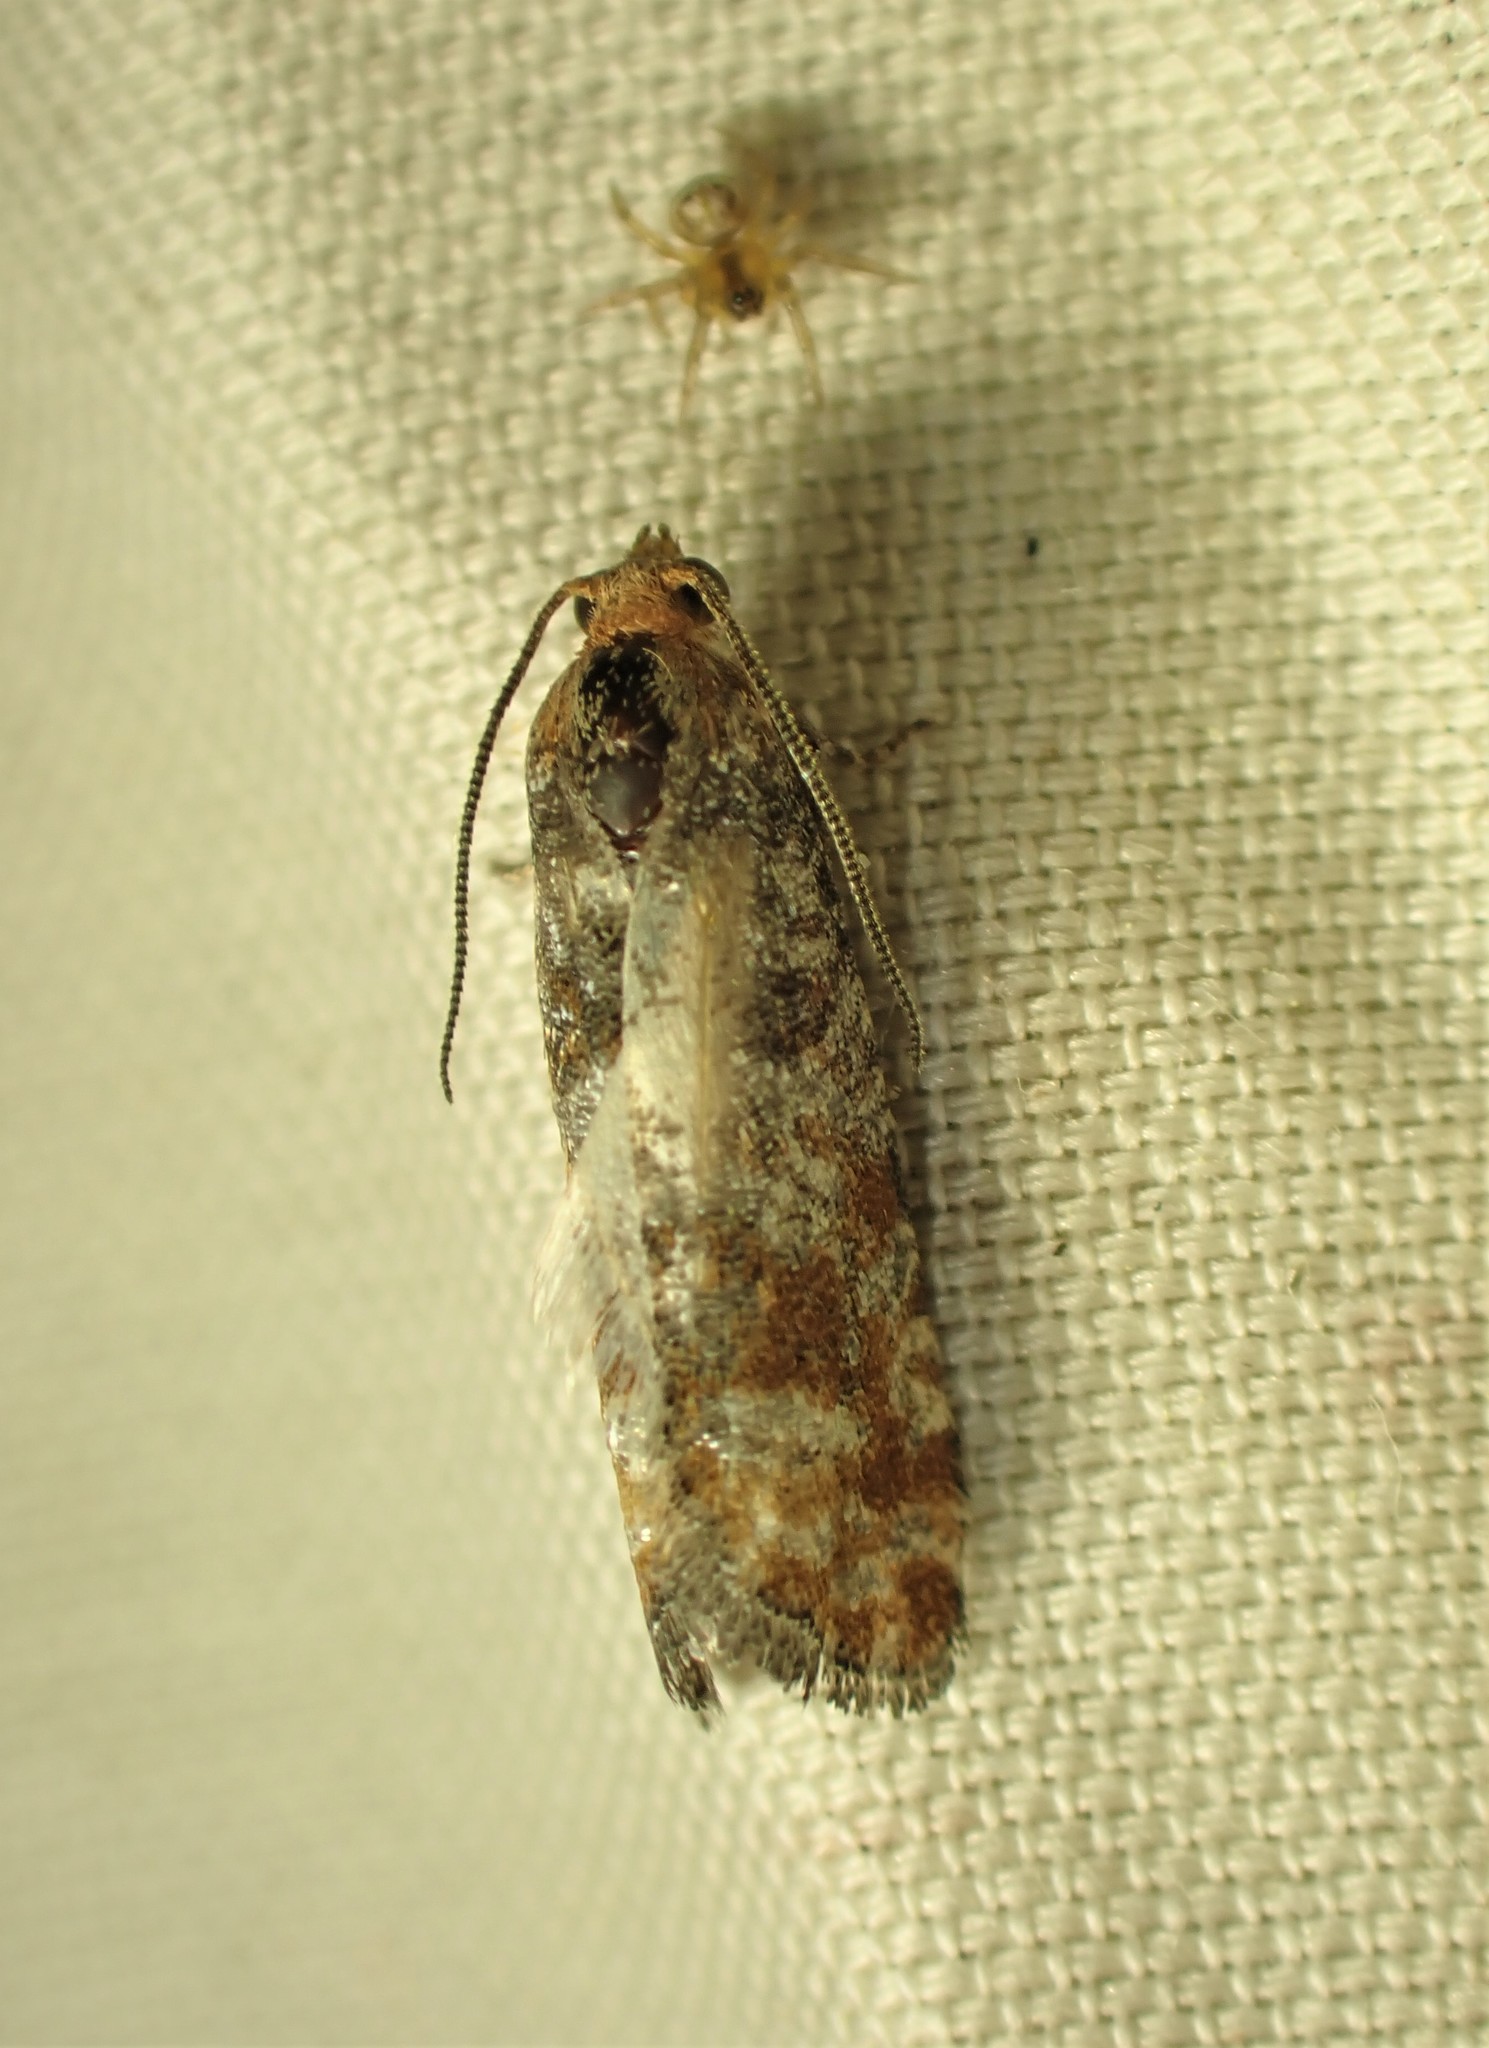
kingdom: Animalia
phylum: Arthropoda
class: Insecta
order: Lepidoptera
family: Tortricidae
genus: Retinia
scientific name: Retinia pallipennis
